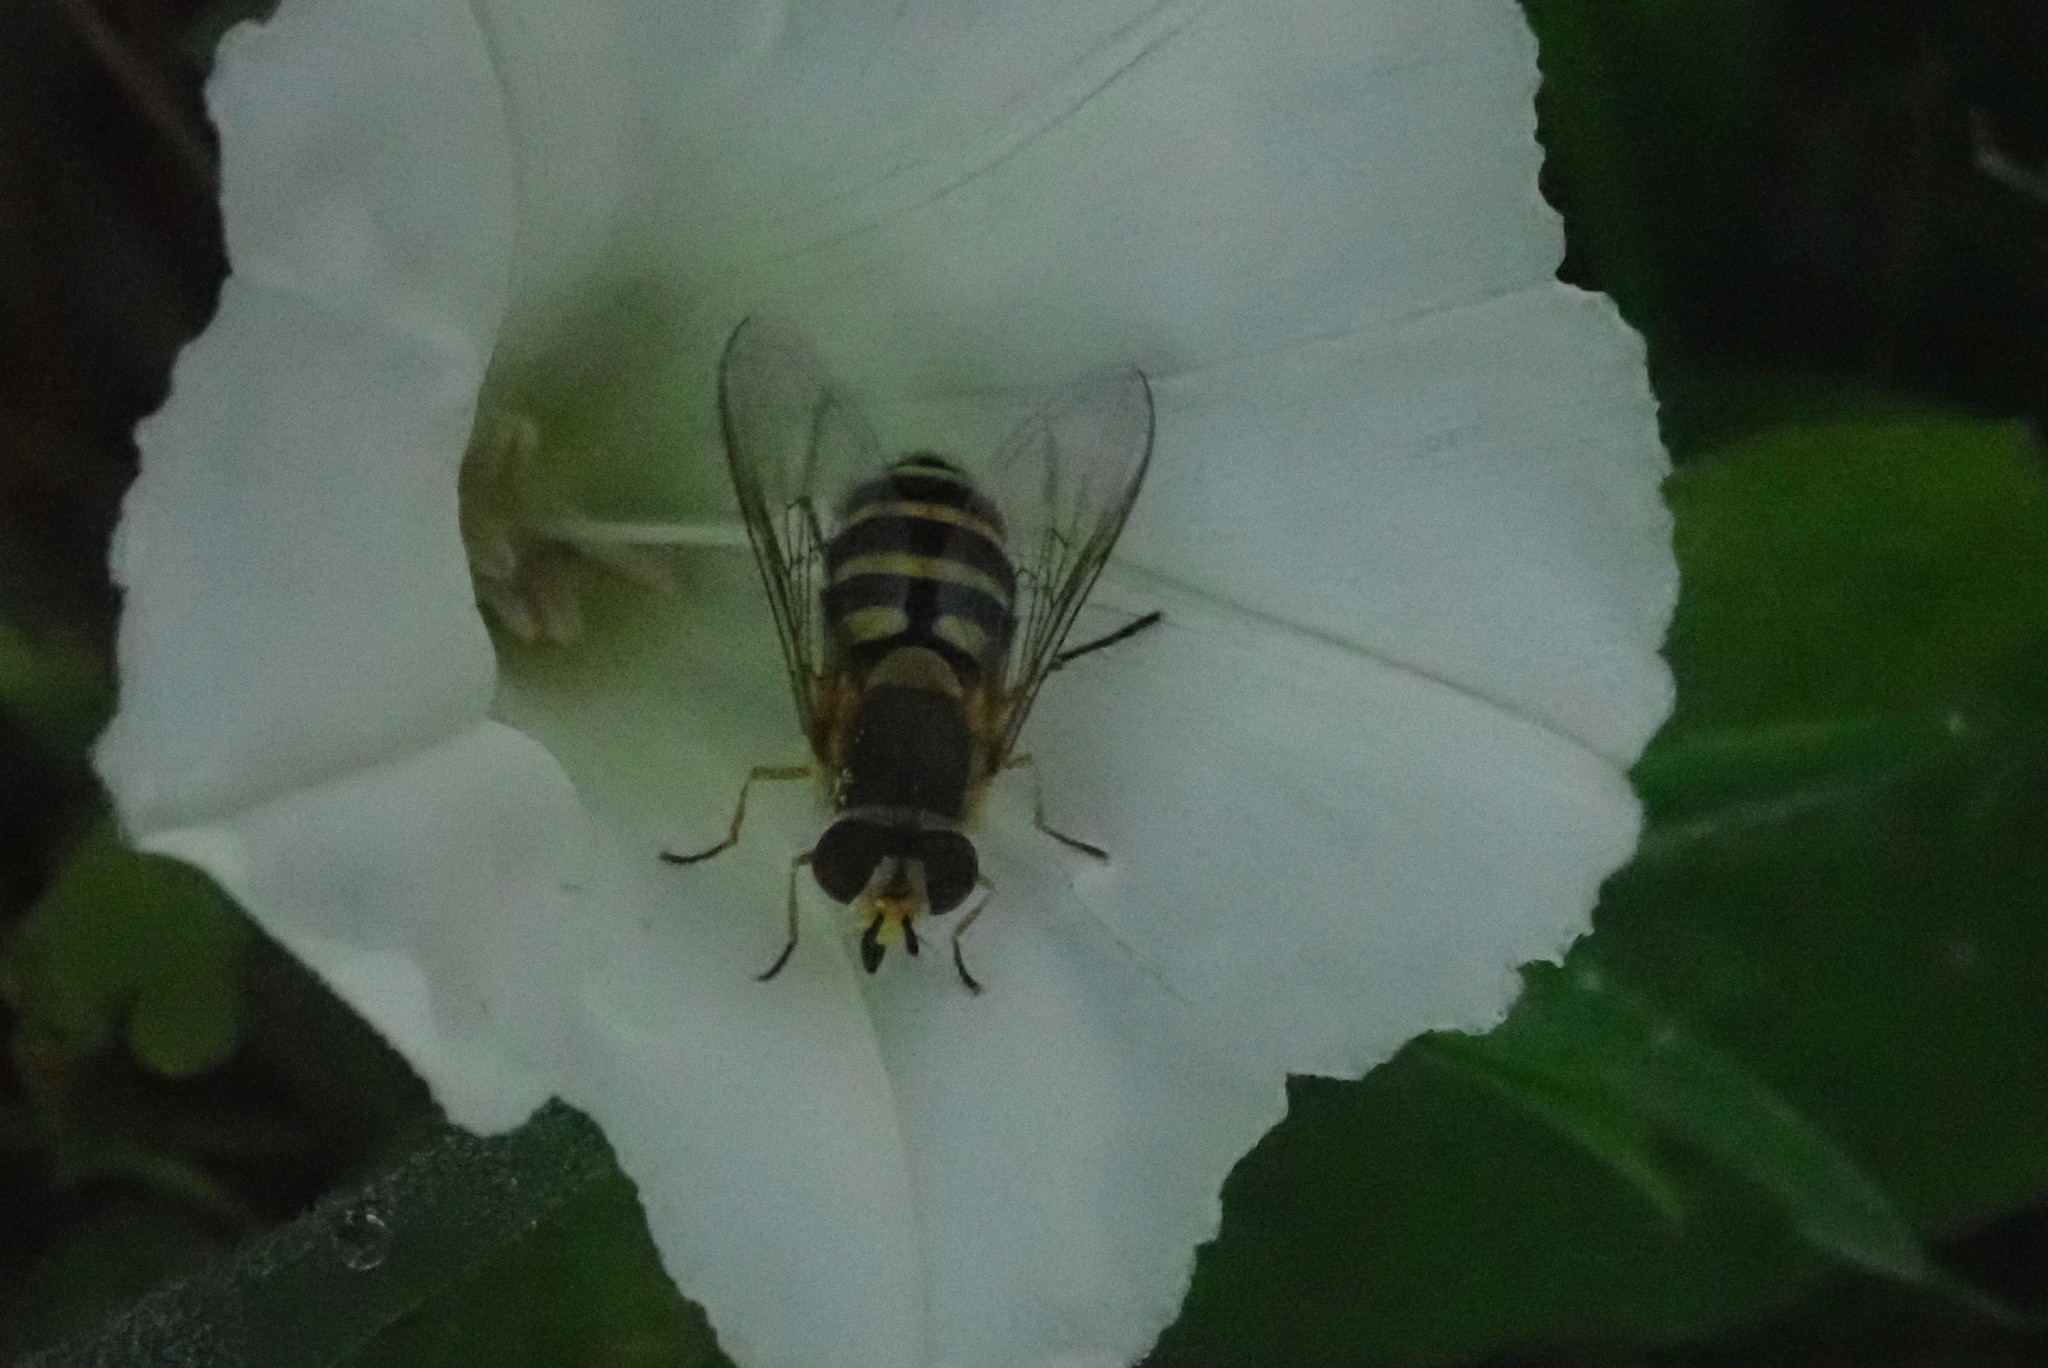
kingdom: Animalia
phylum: Arthropoda
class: Insecta
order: Diptera
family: Syrphidae
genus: Syrphus
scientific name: Syrphus ribesii
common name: Common flower fly
